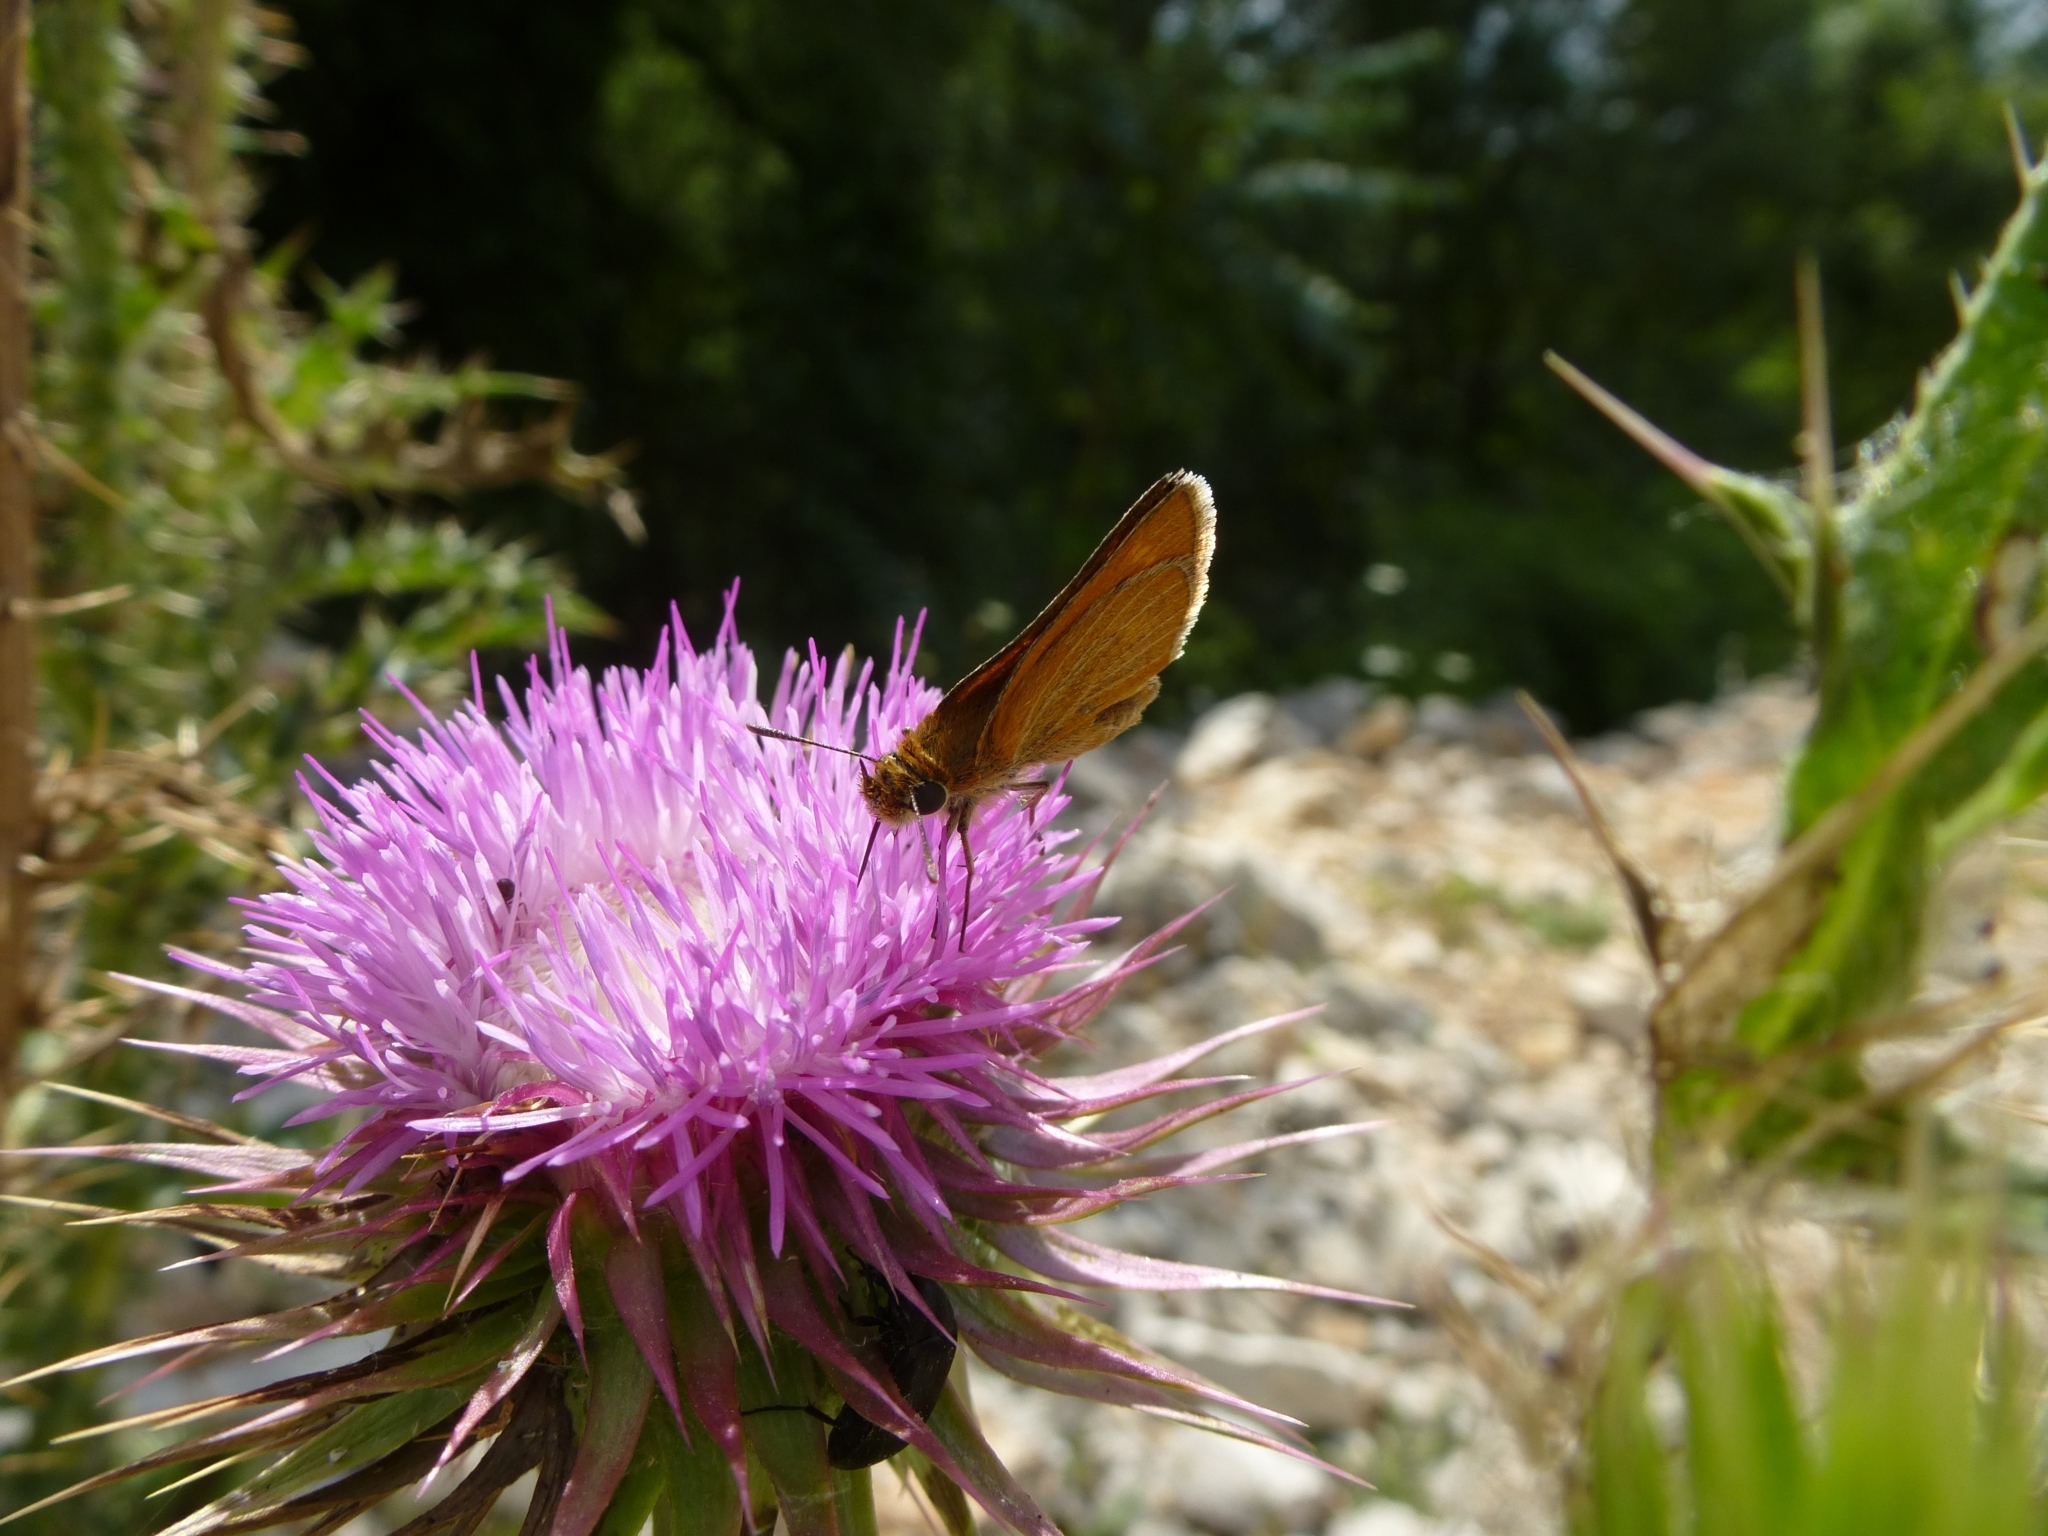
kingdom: Animalia
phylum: Arthropoda
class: Insecta
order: Lepidoptera
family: Hesperiidae
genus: Thymelicus
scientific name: Thymelicus acteon
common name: Lulworth skipper
